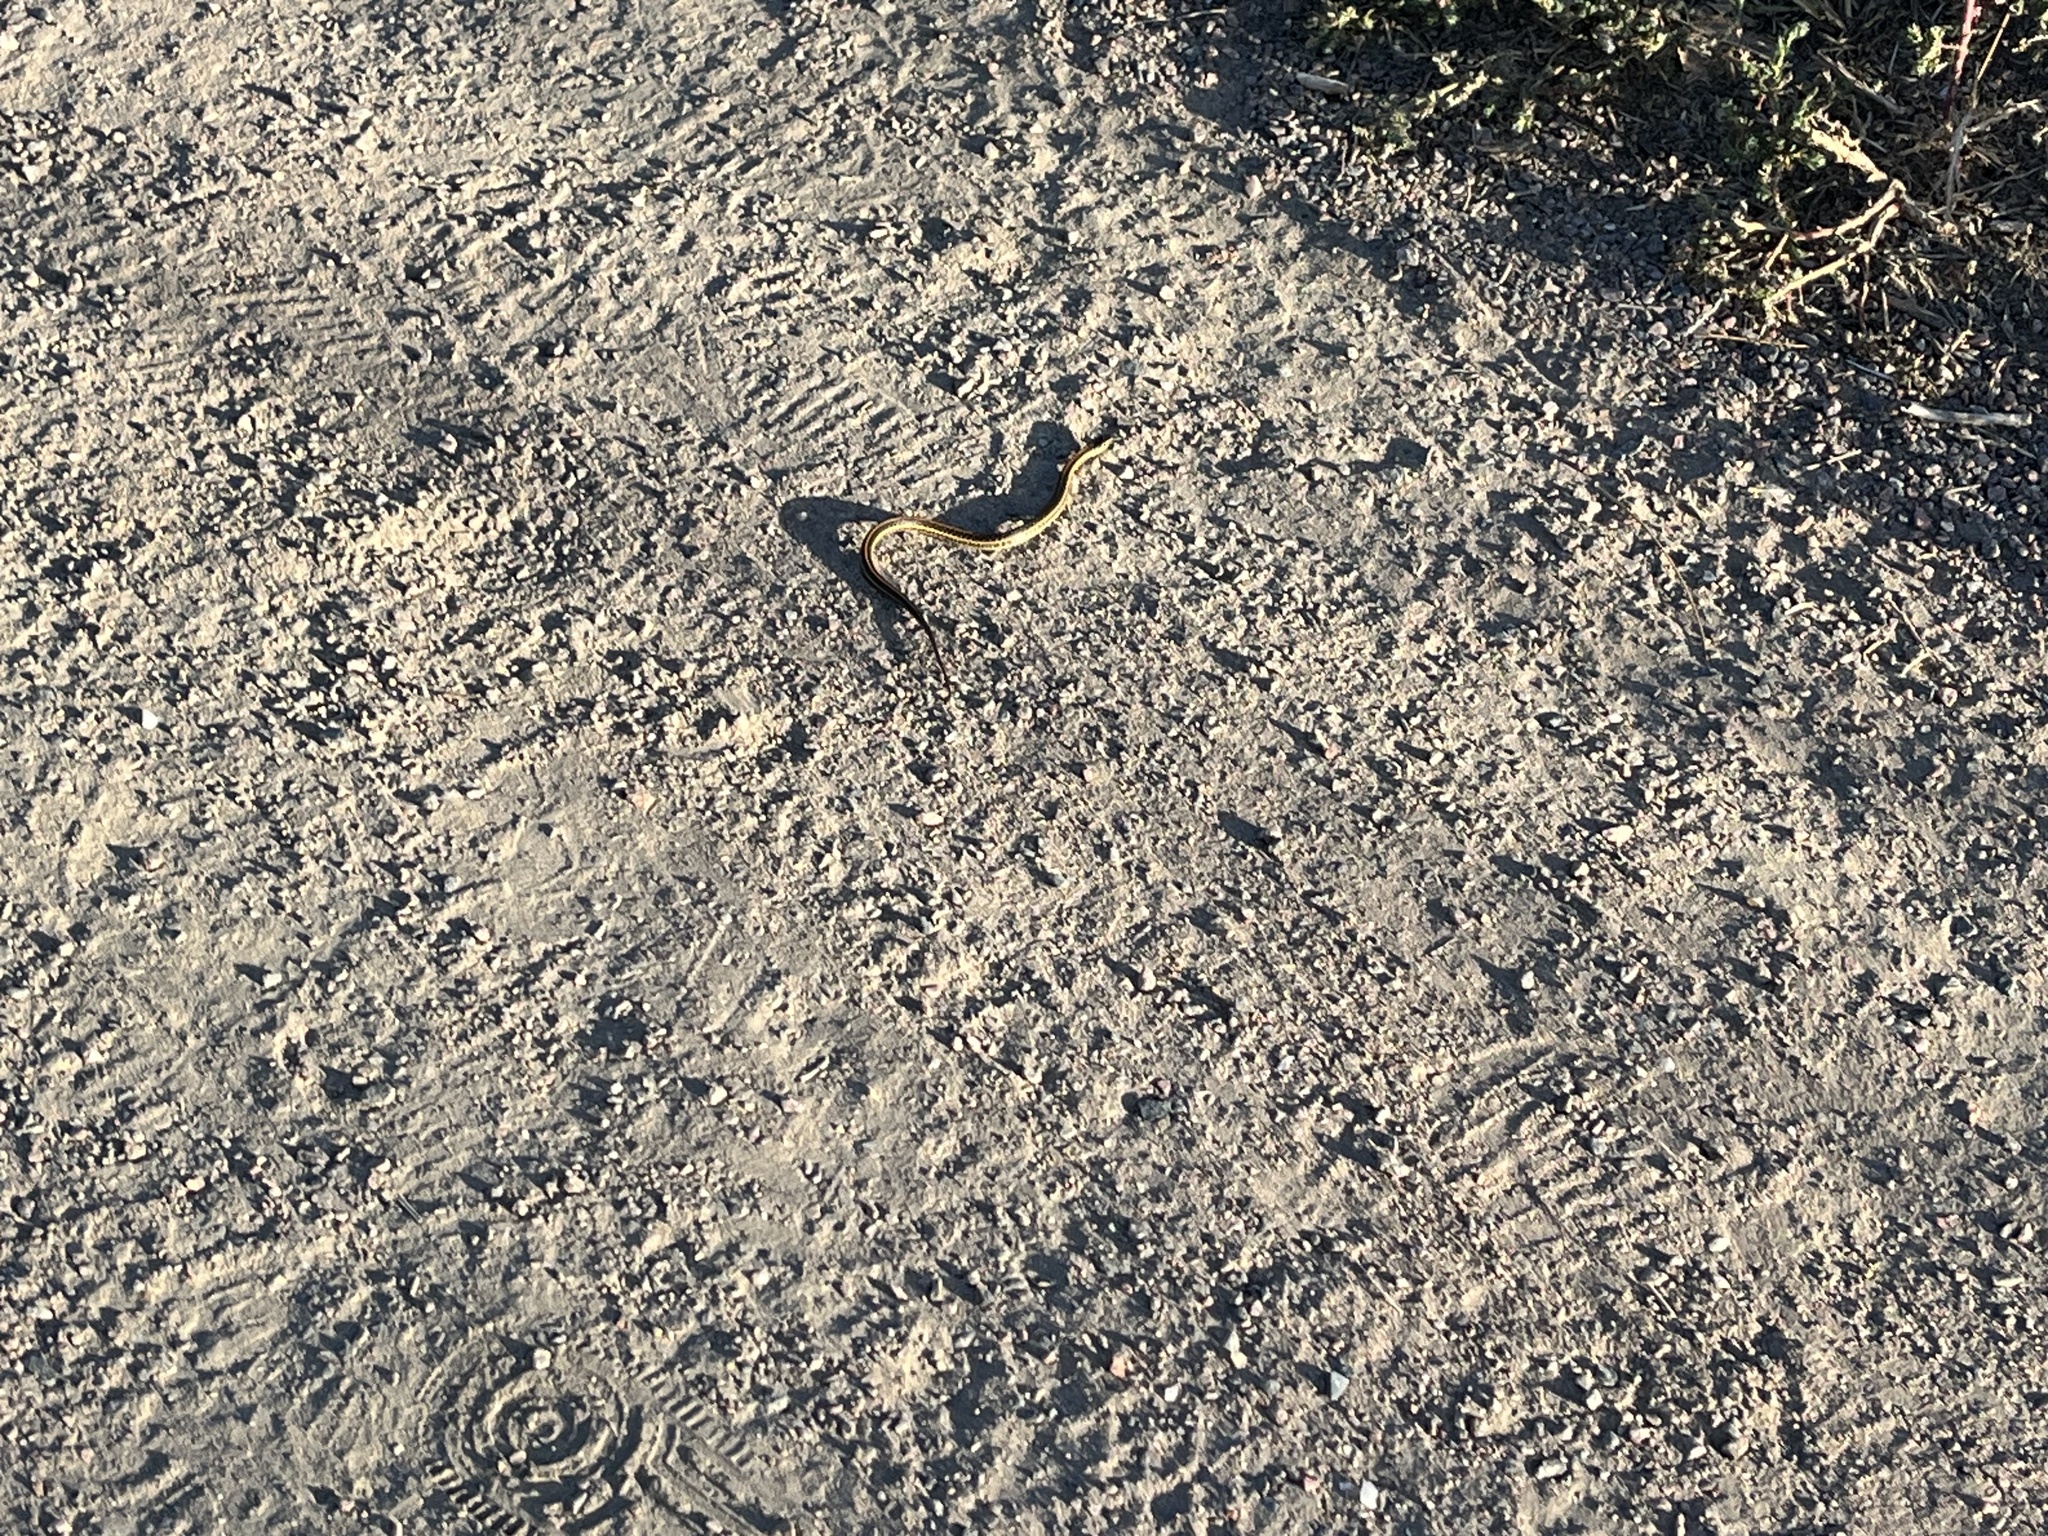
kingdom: Animalia
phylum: Chordata
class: Squamata
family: Colubridae
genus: Thamnophis
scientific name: Thamnophis radix
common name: Plains garter snake
